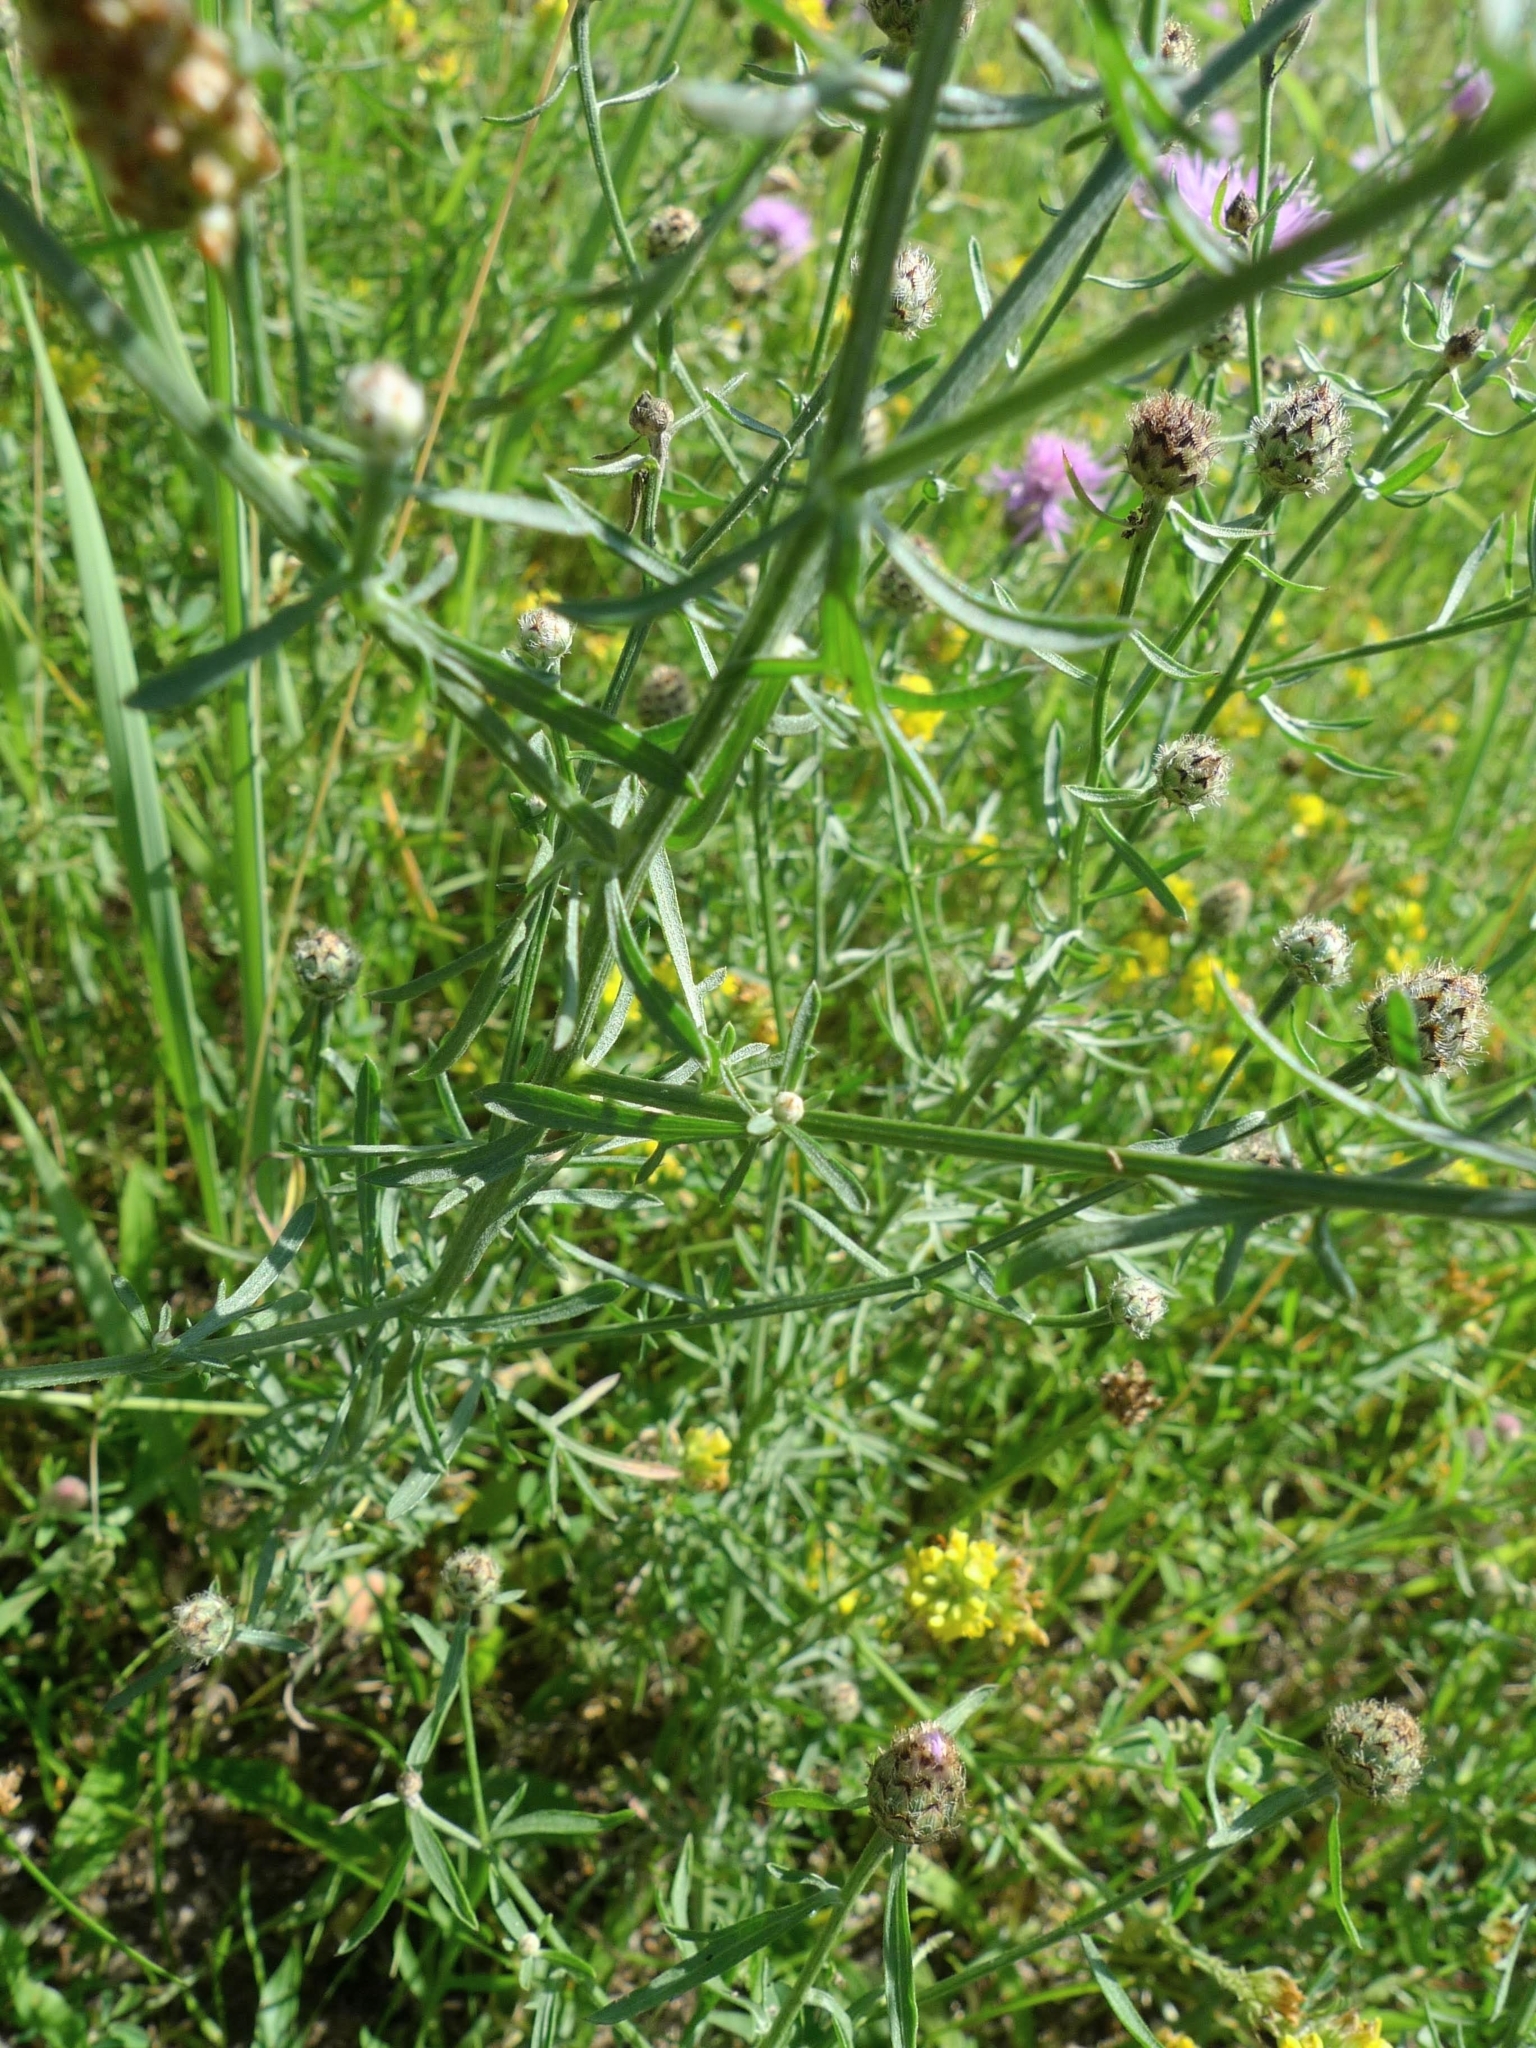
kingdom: Plantae
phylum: Tracheophyta
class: Magnoliopsida
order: Asterales
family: Asteraceae
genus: Centaurea
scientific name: Centaurea stoebe
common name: Spotted knapweed
